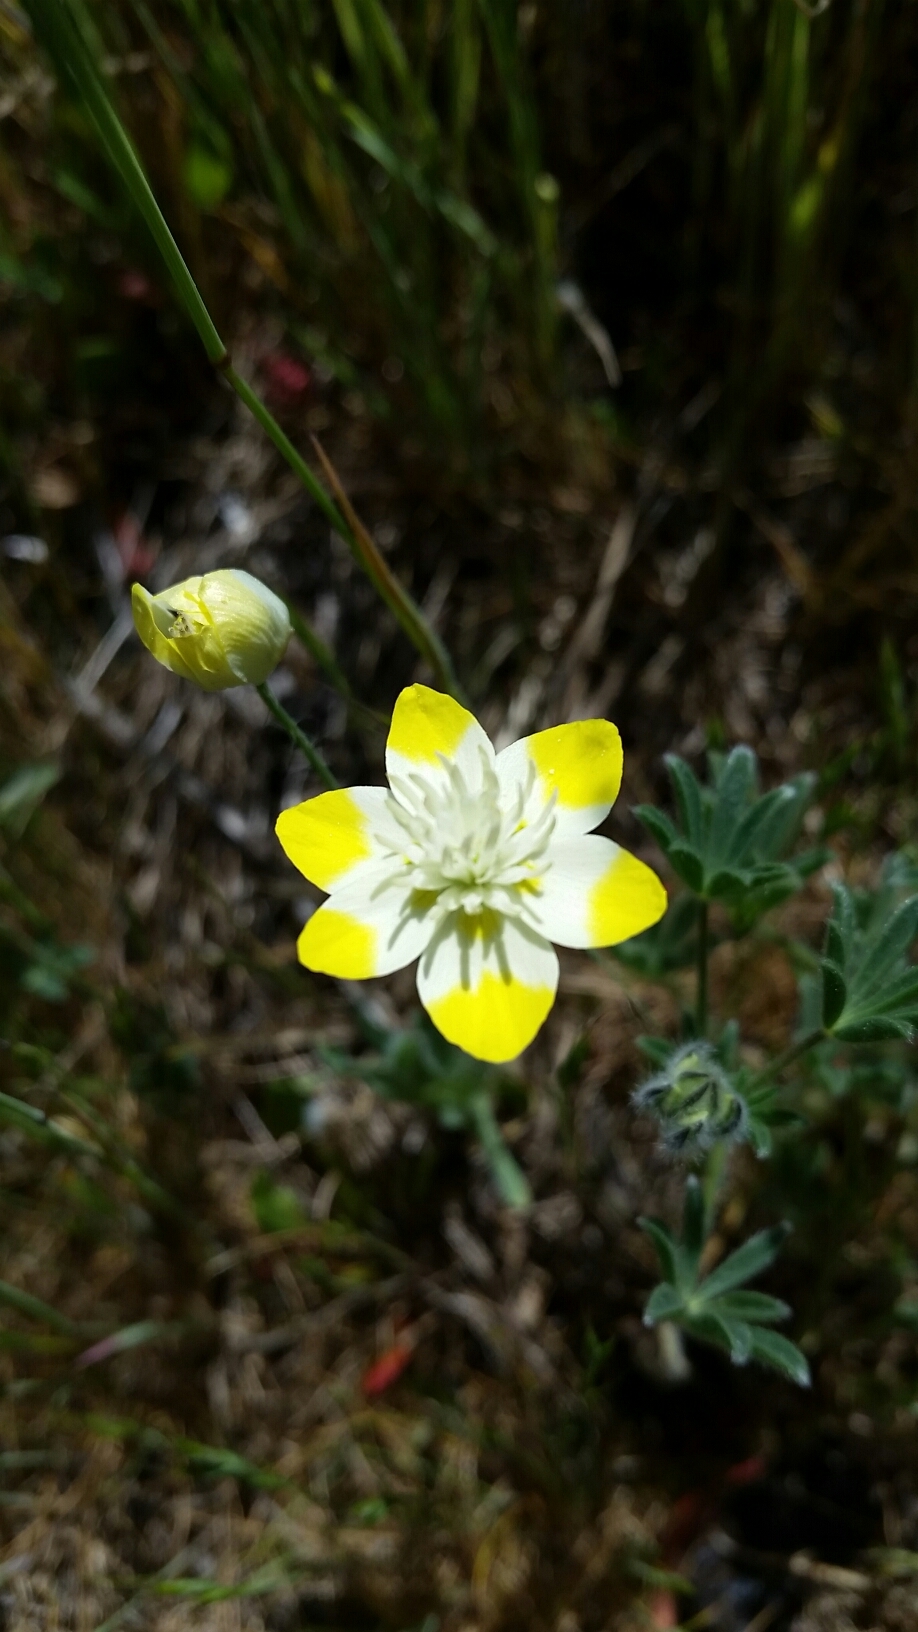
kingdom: Plantae
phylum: Tracheophyta
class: Magnoliopsida
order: Ranunculales
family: Papaveraceae
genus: Platystemon
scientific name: Platystemon californicus
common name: Cream-cups
